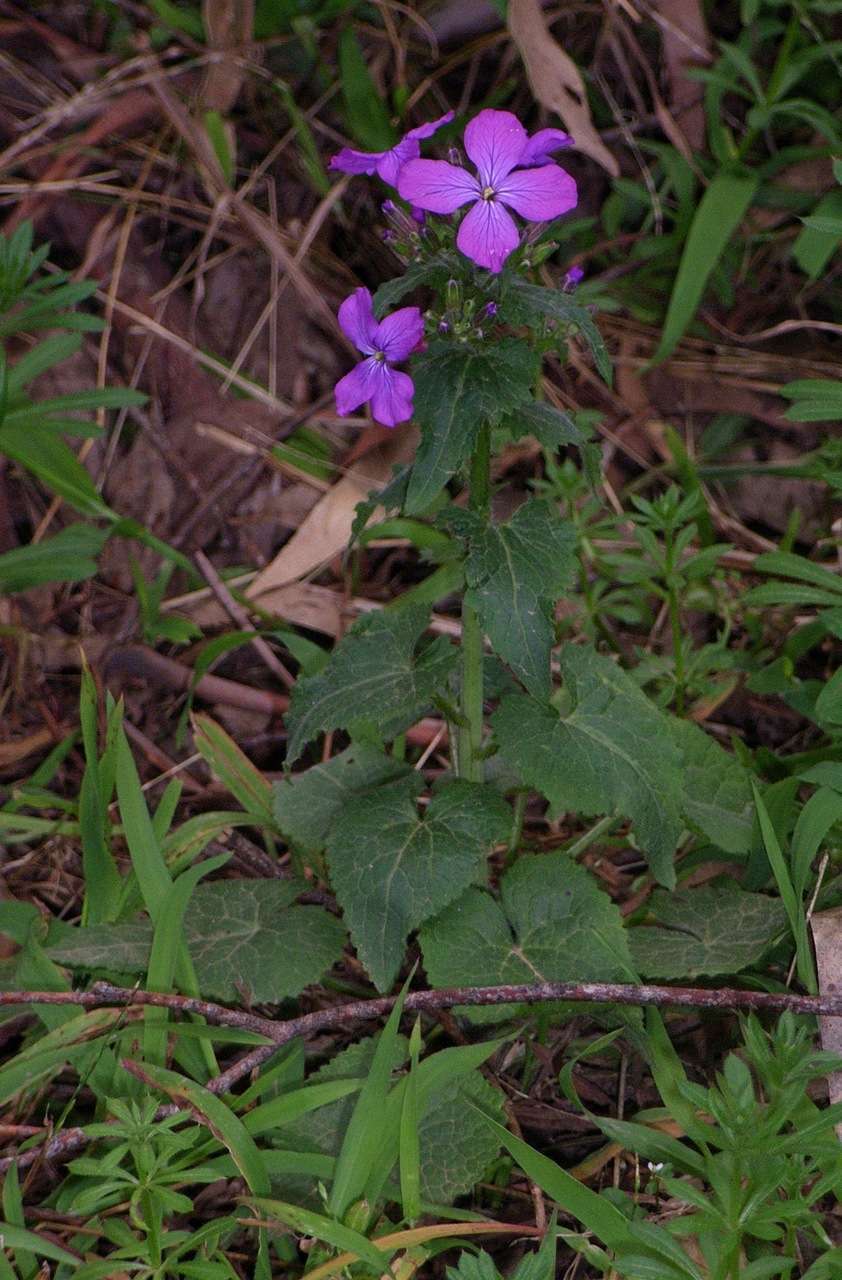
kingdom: Plantae
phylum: Tracheophyta
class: Magnoliopsida
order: Brassicales
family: Brassicaceae
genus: Lunaria
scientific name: Lunaria annua
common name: Honesty
